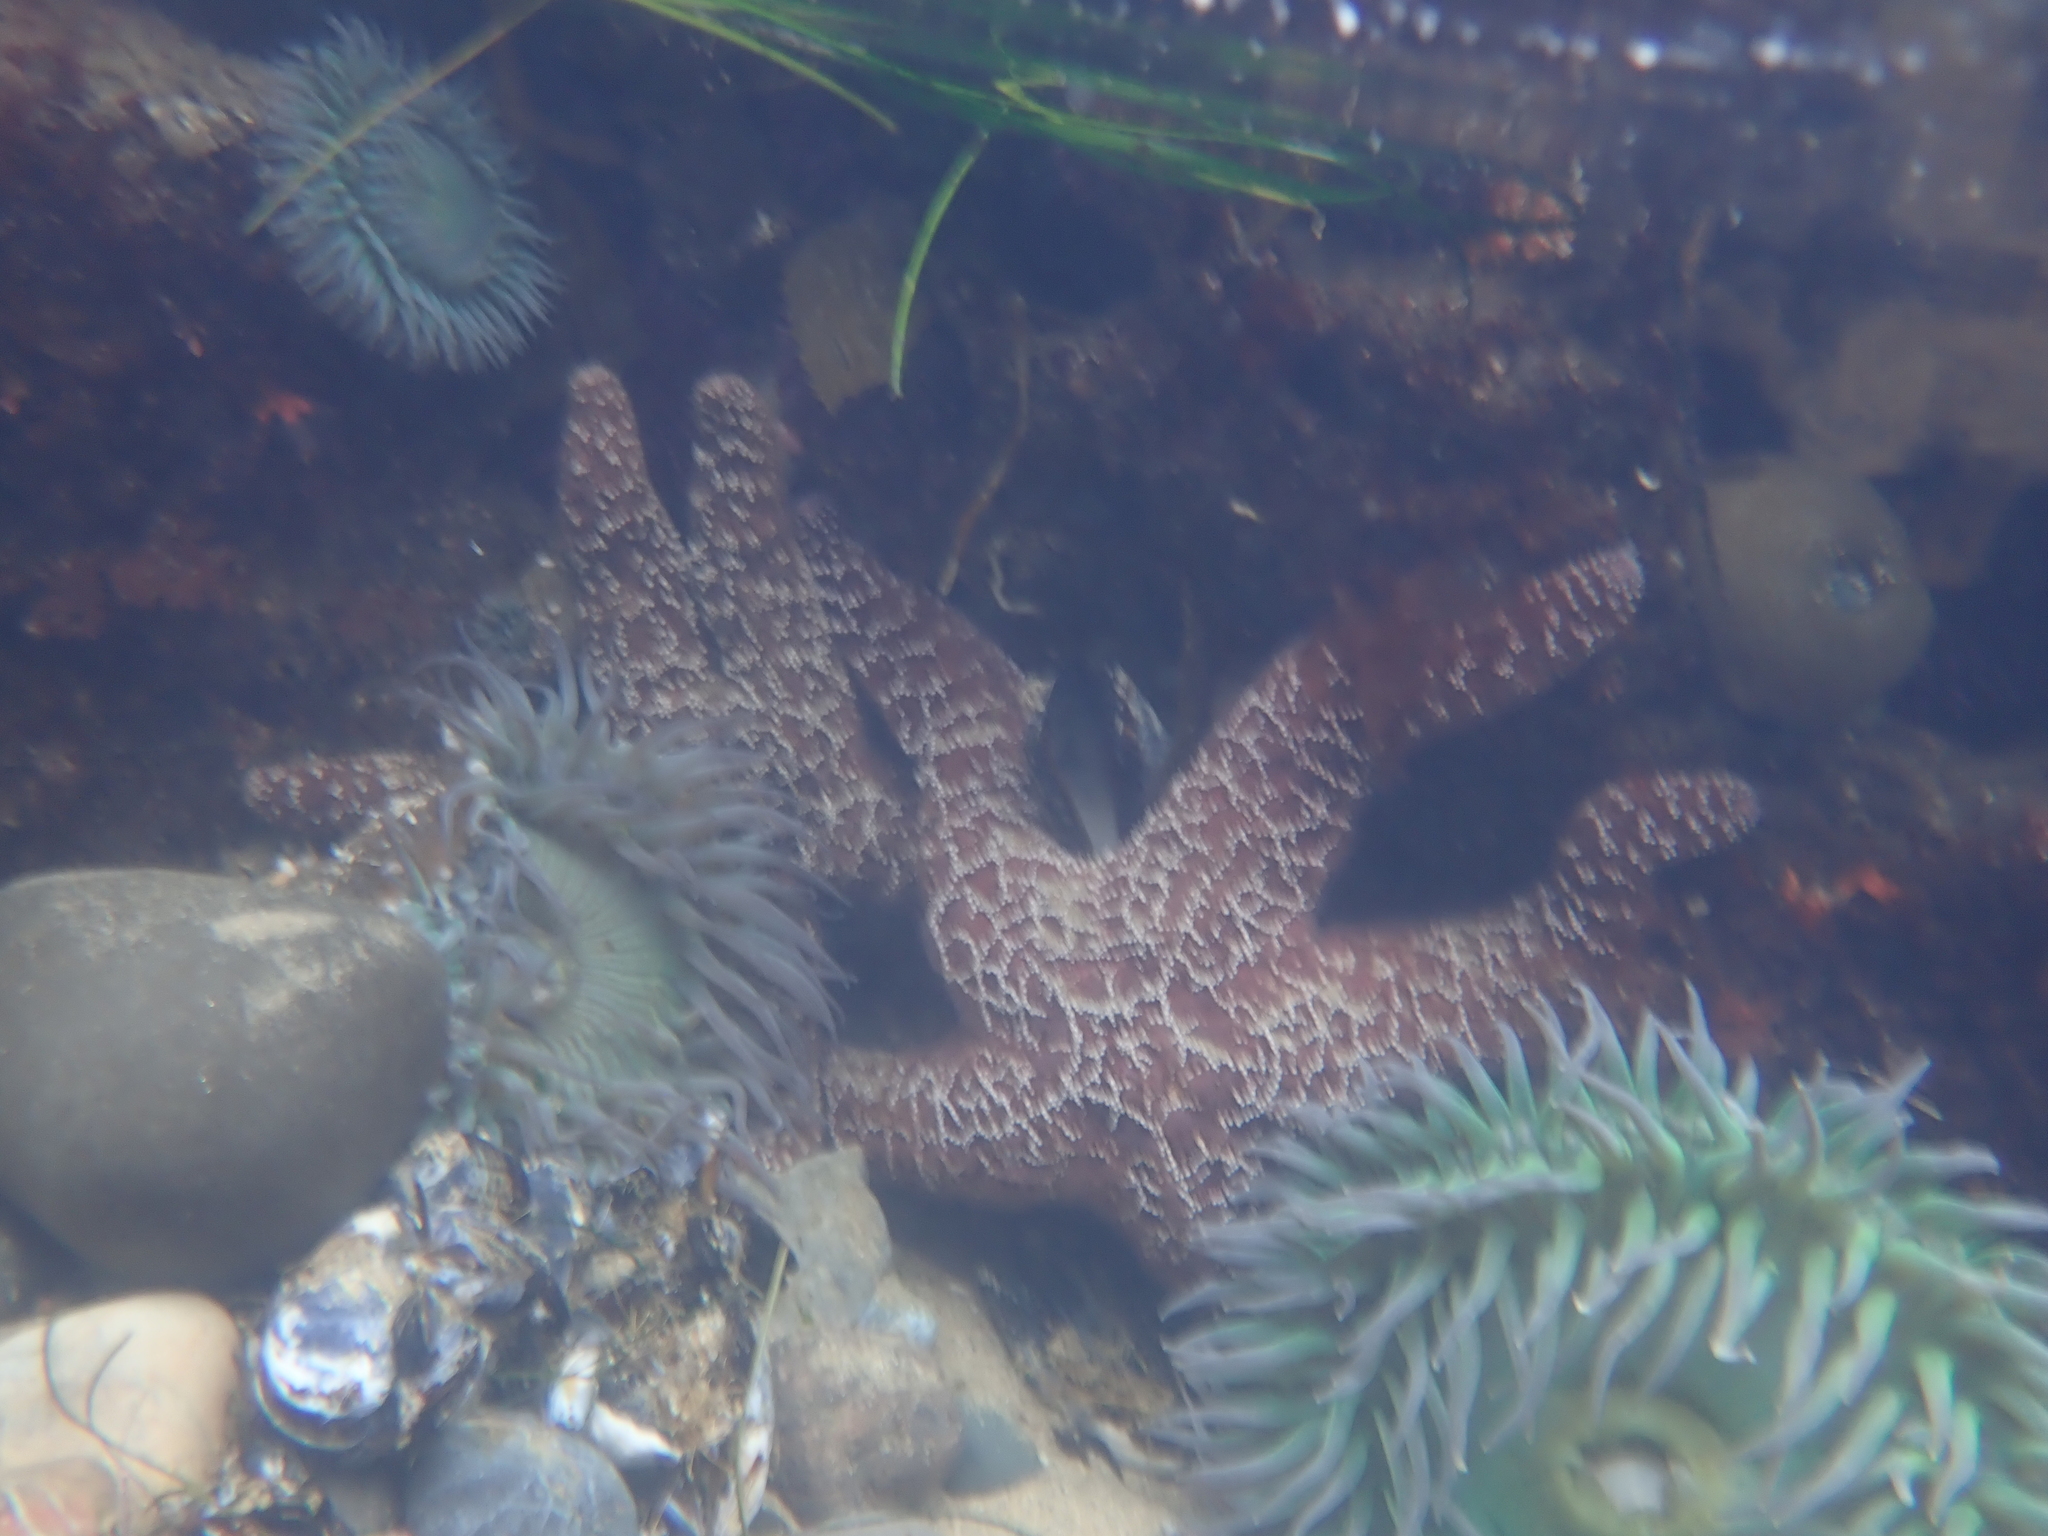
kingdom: Animalia
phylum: Echinodermata
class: Asteroidea
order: Forcipulatida
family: Asteriidae
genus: Pisaster
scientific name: Pisaster ochraceus
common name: Ochre stars
